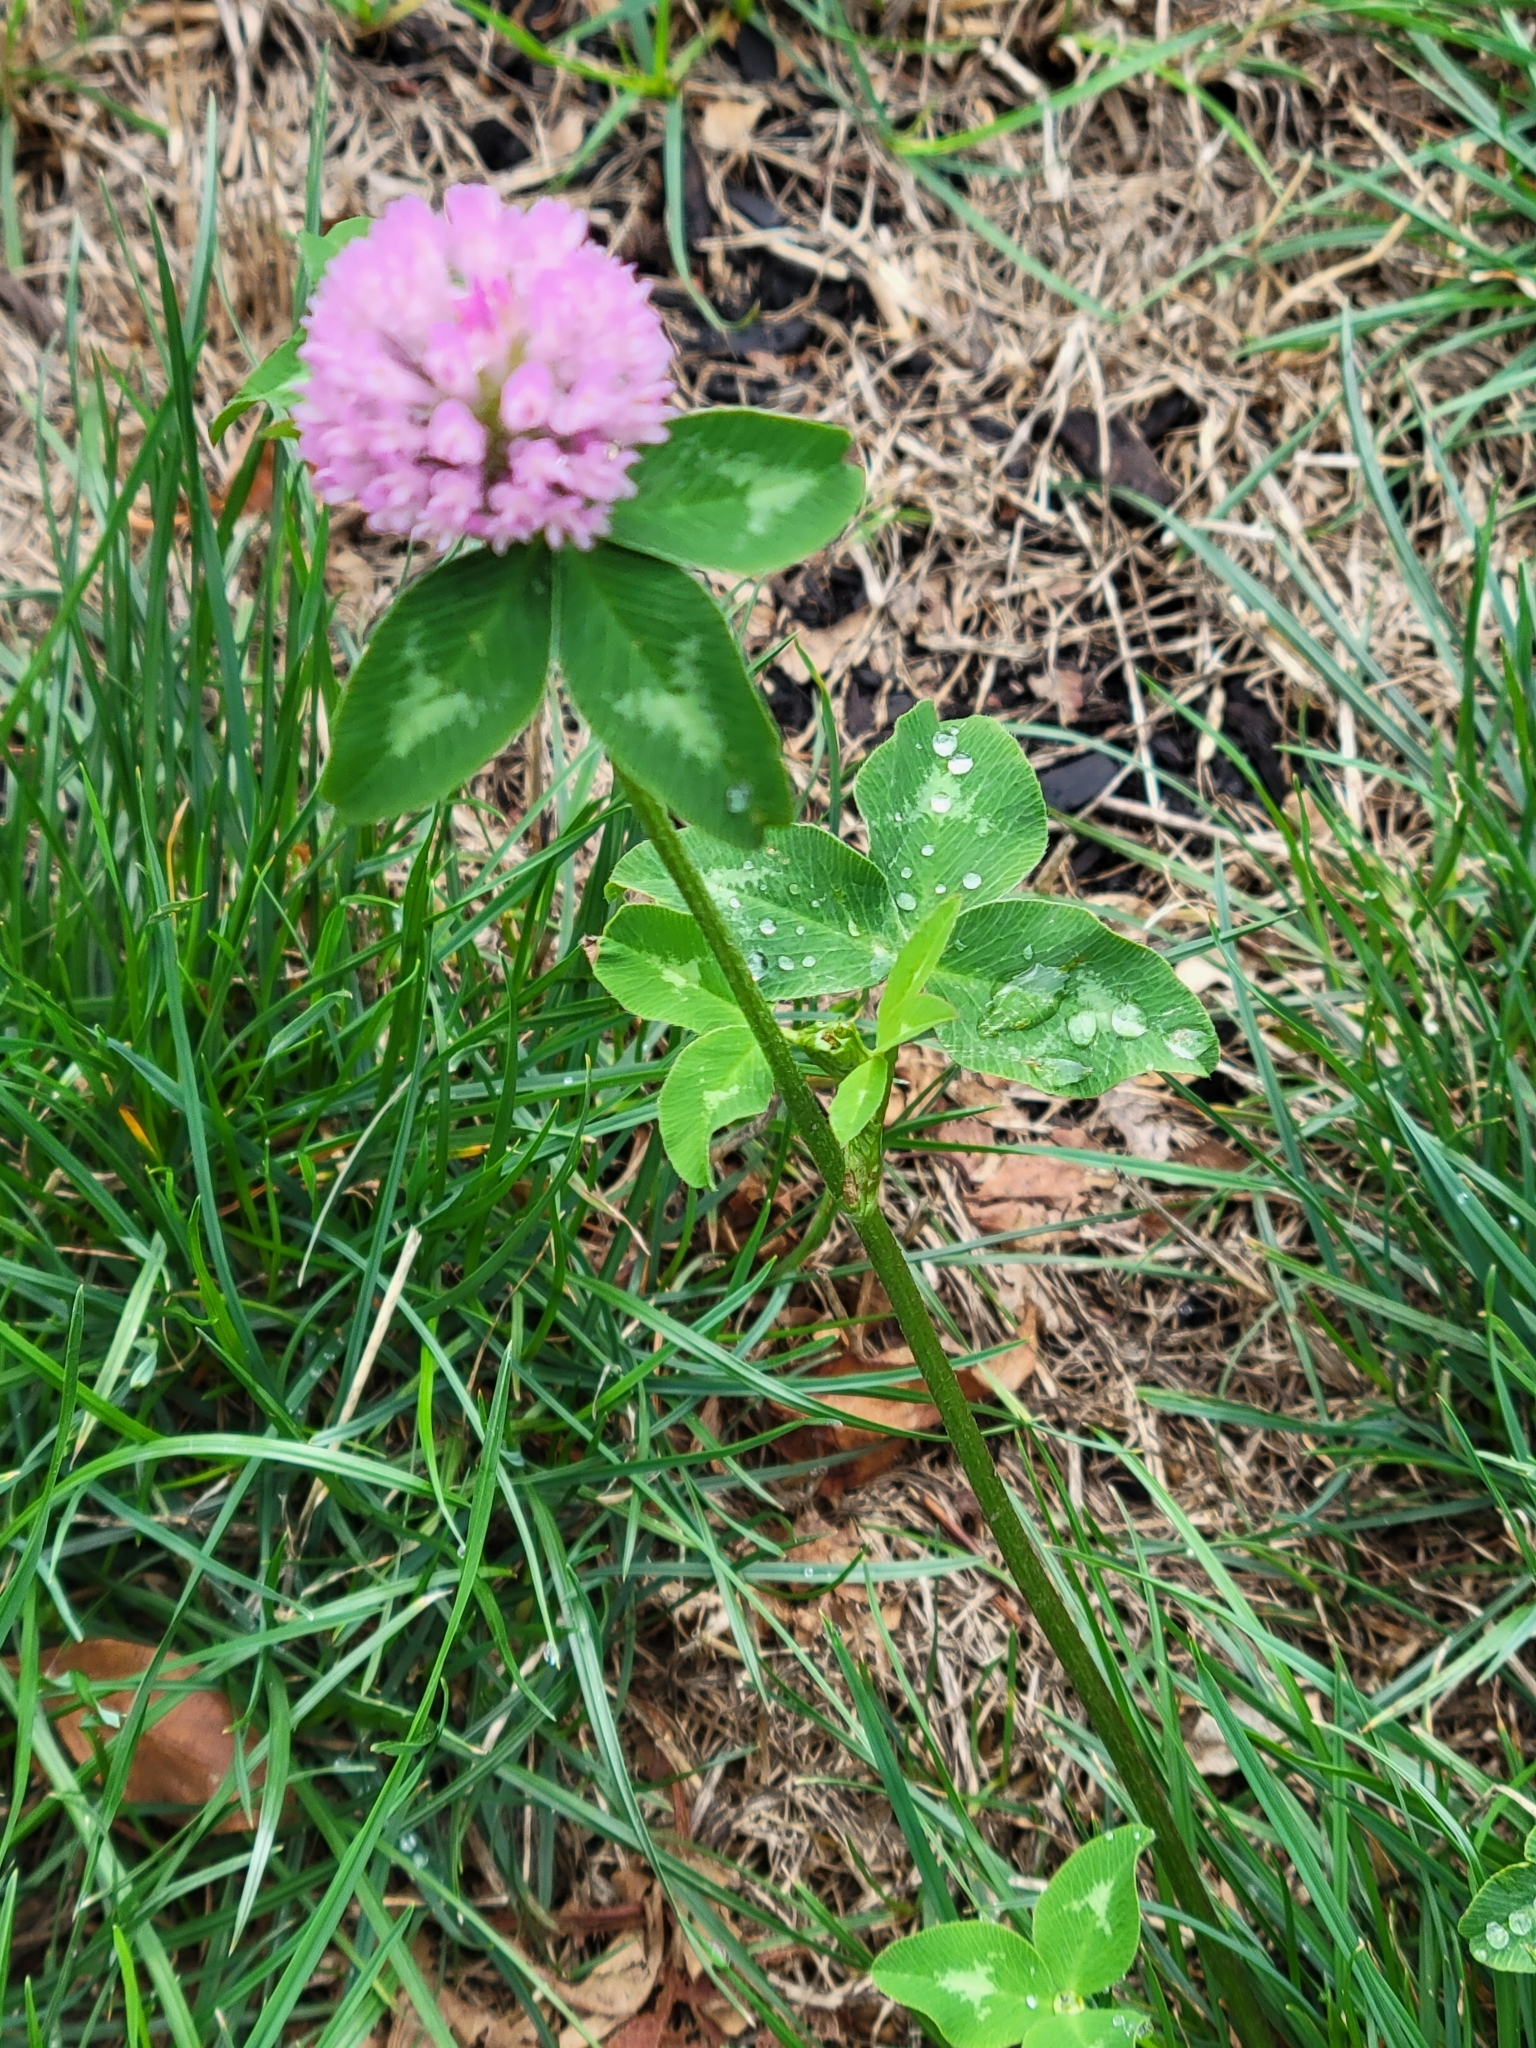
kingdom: Plantae
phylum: Tracheophyta
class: Magnoliopsida
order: Fabales
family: Fabaceae
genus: Trifolium
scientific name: Trifolium pratense
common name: Red clover
